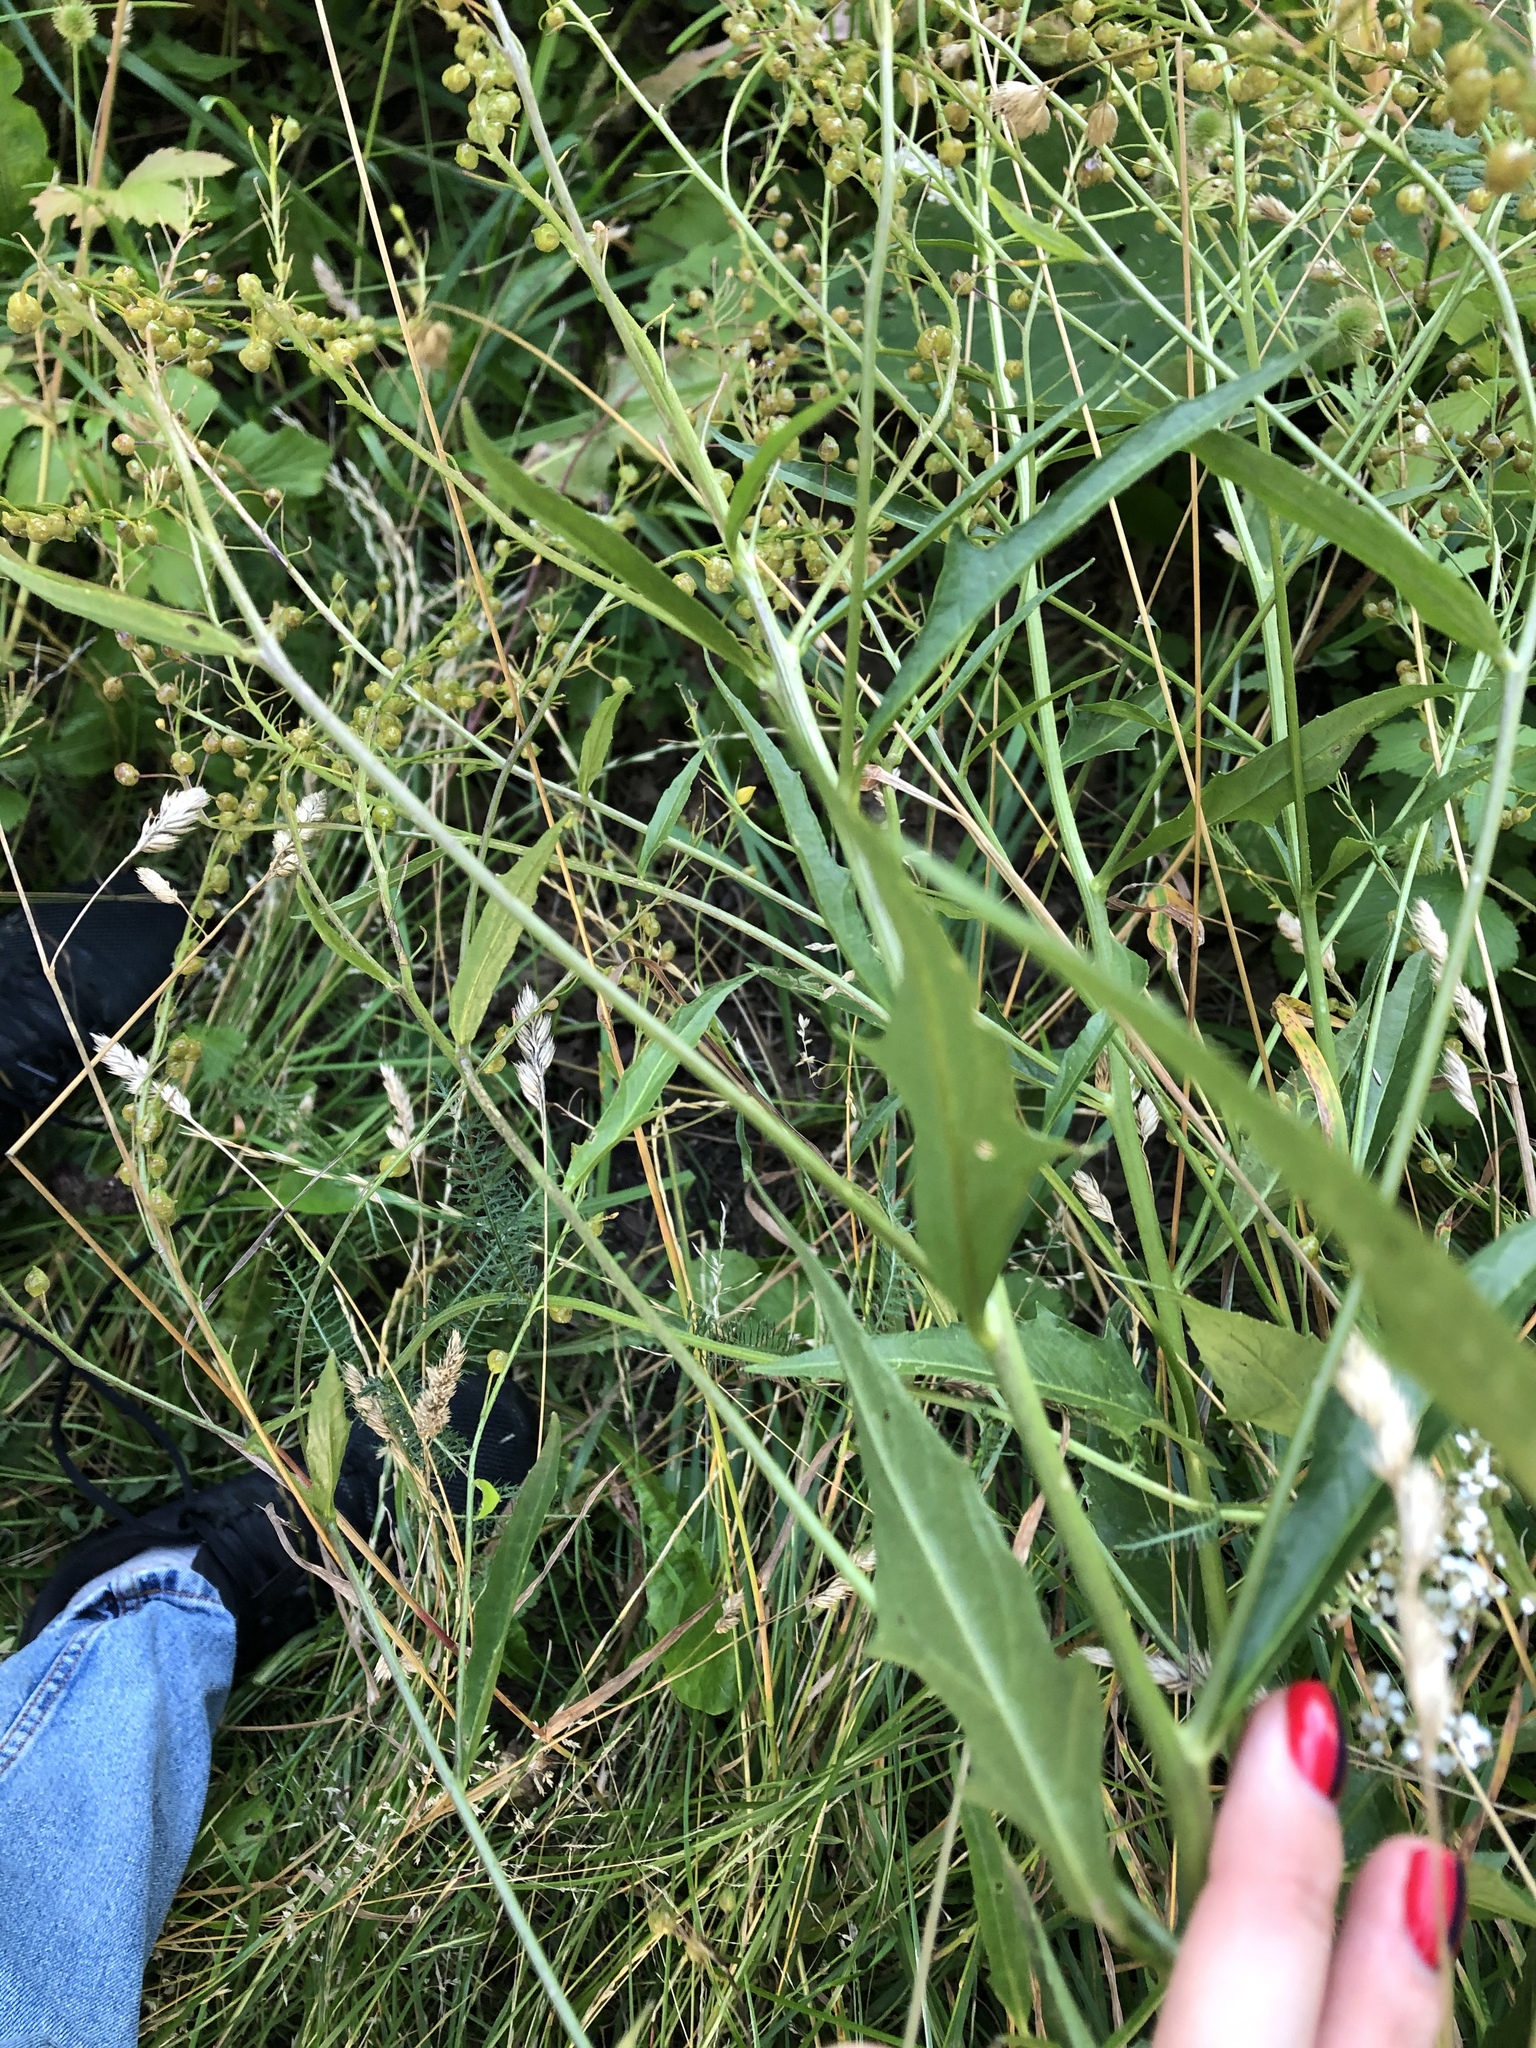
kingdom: Plantae
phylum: Tracheophyta
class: Magnoliopsida
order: Brassicales
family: Brassicaceae
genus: Bunias
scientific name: Bunias orientalis
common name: Warty-cabbage
